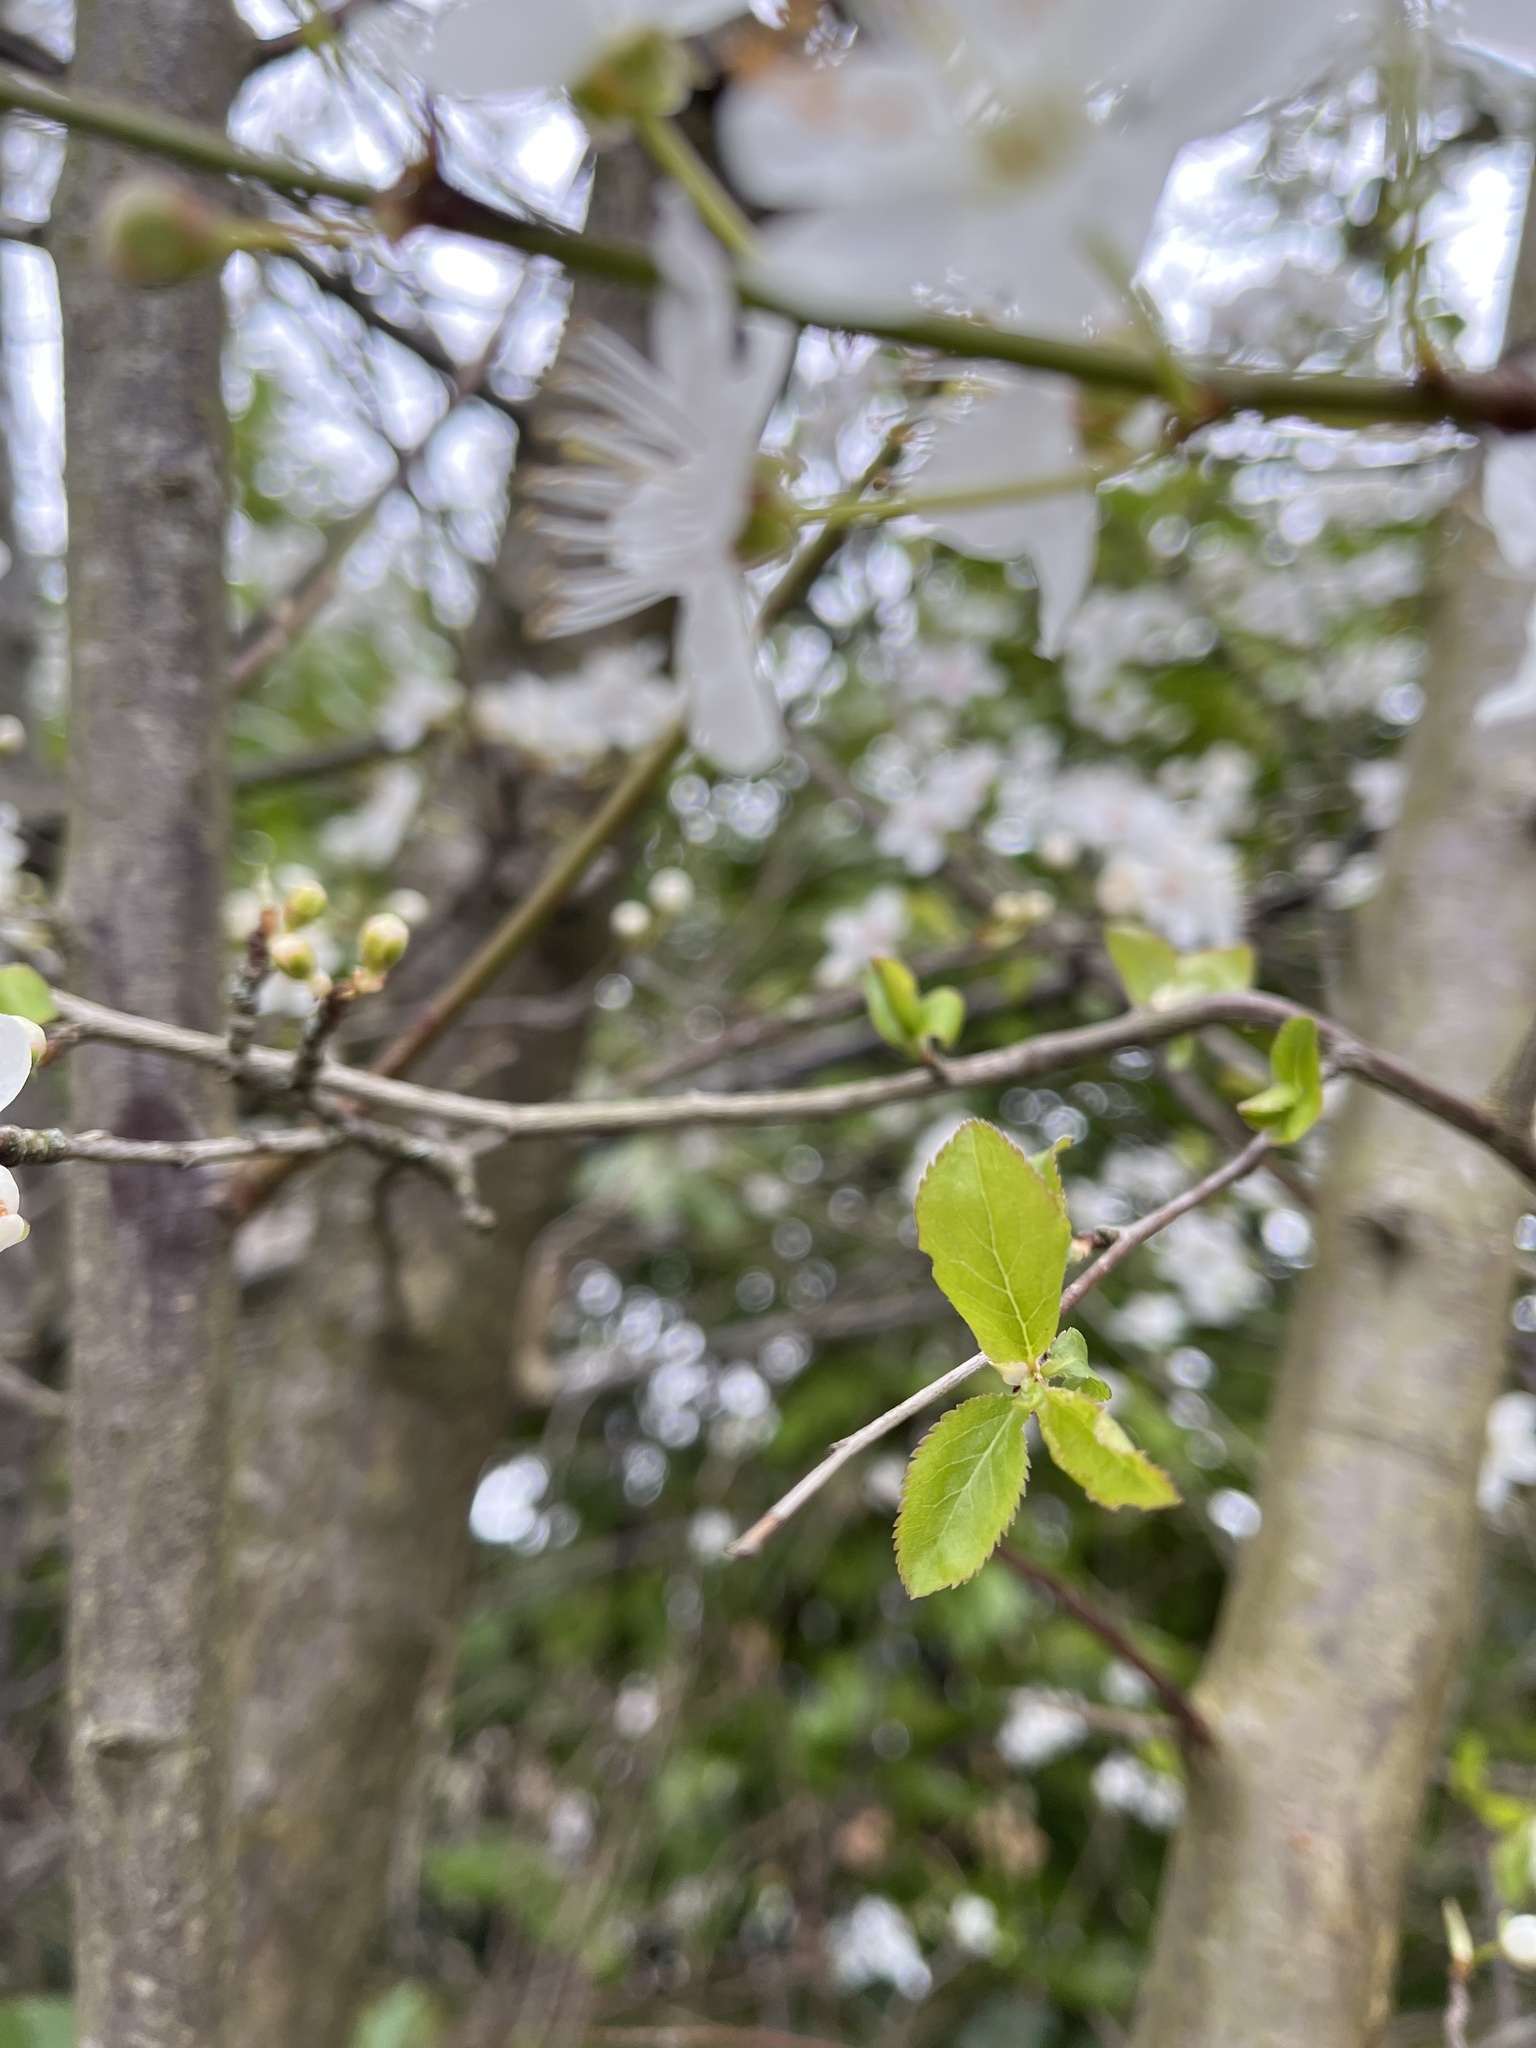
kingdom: Plantae
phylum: Tracheophyta
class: Magnoliopsida
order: Rosales
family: Rosaceae
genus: Prunus
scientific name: Prunus cerasifera
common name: Cherry plum
